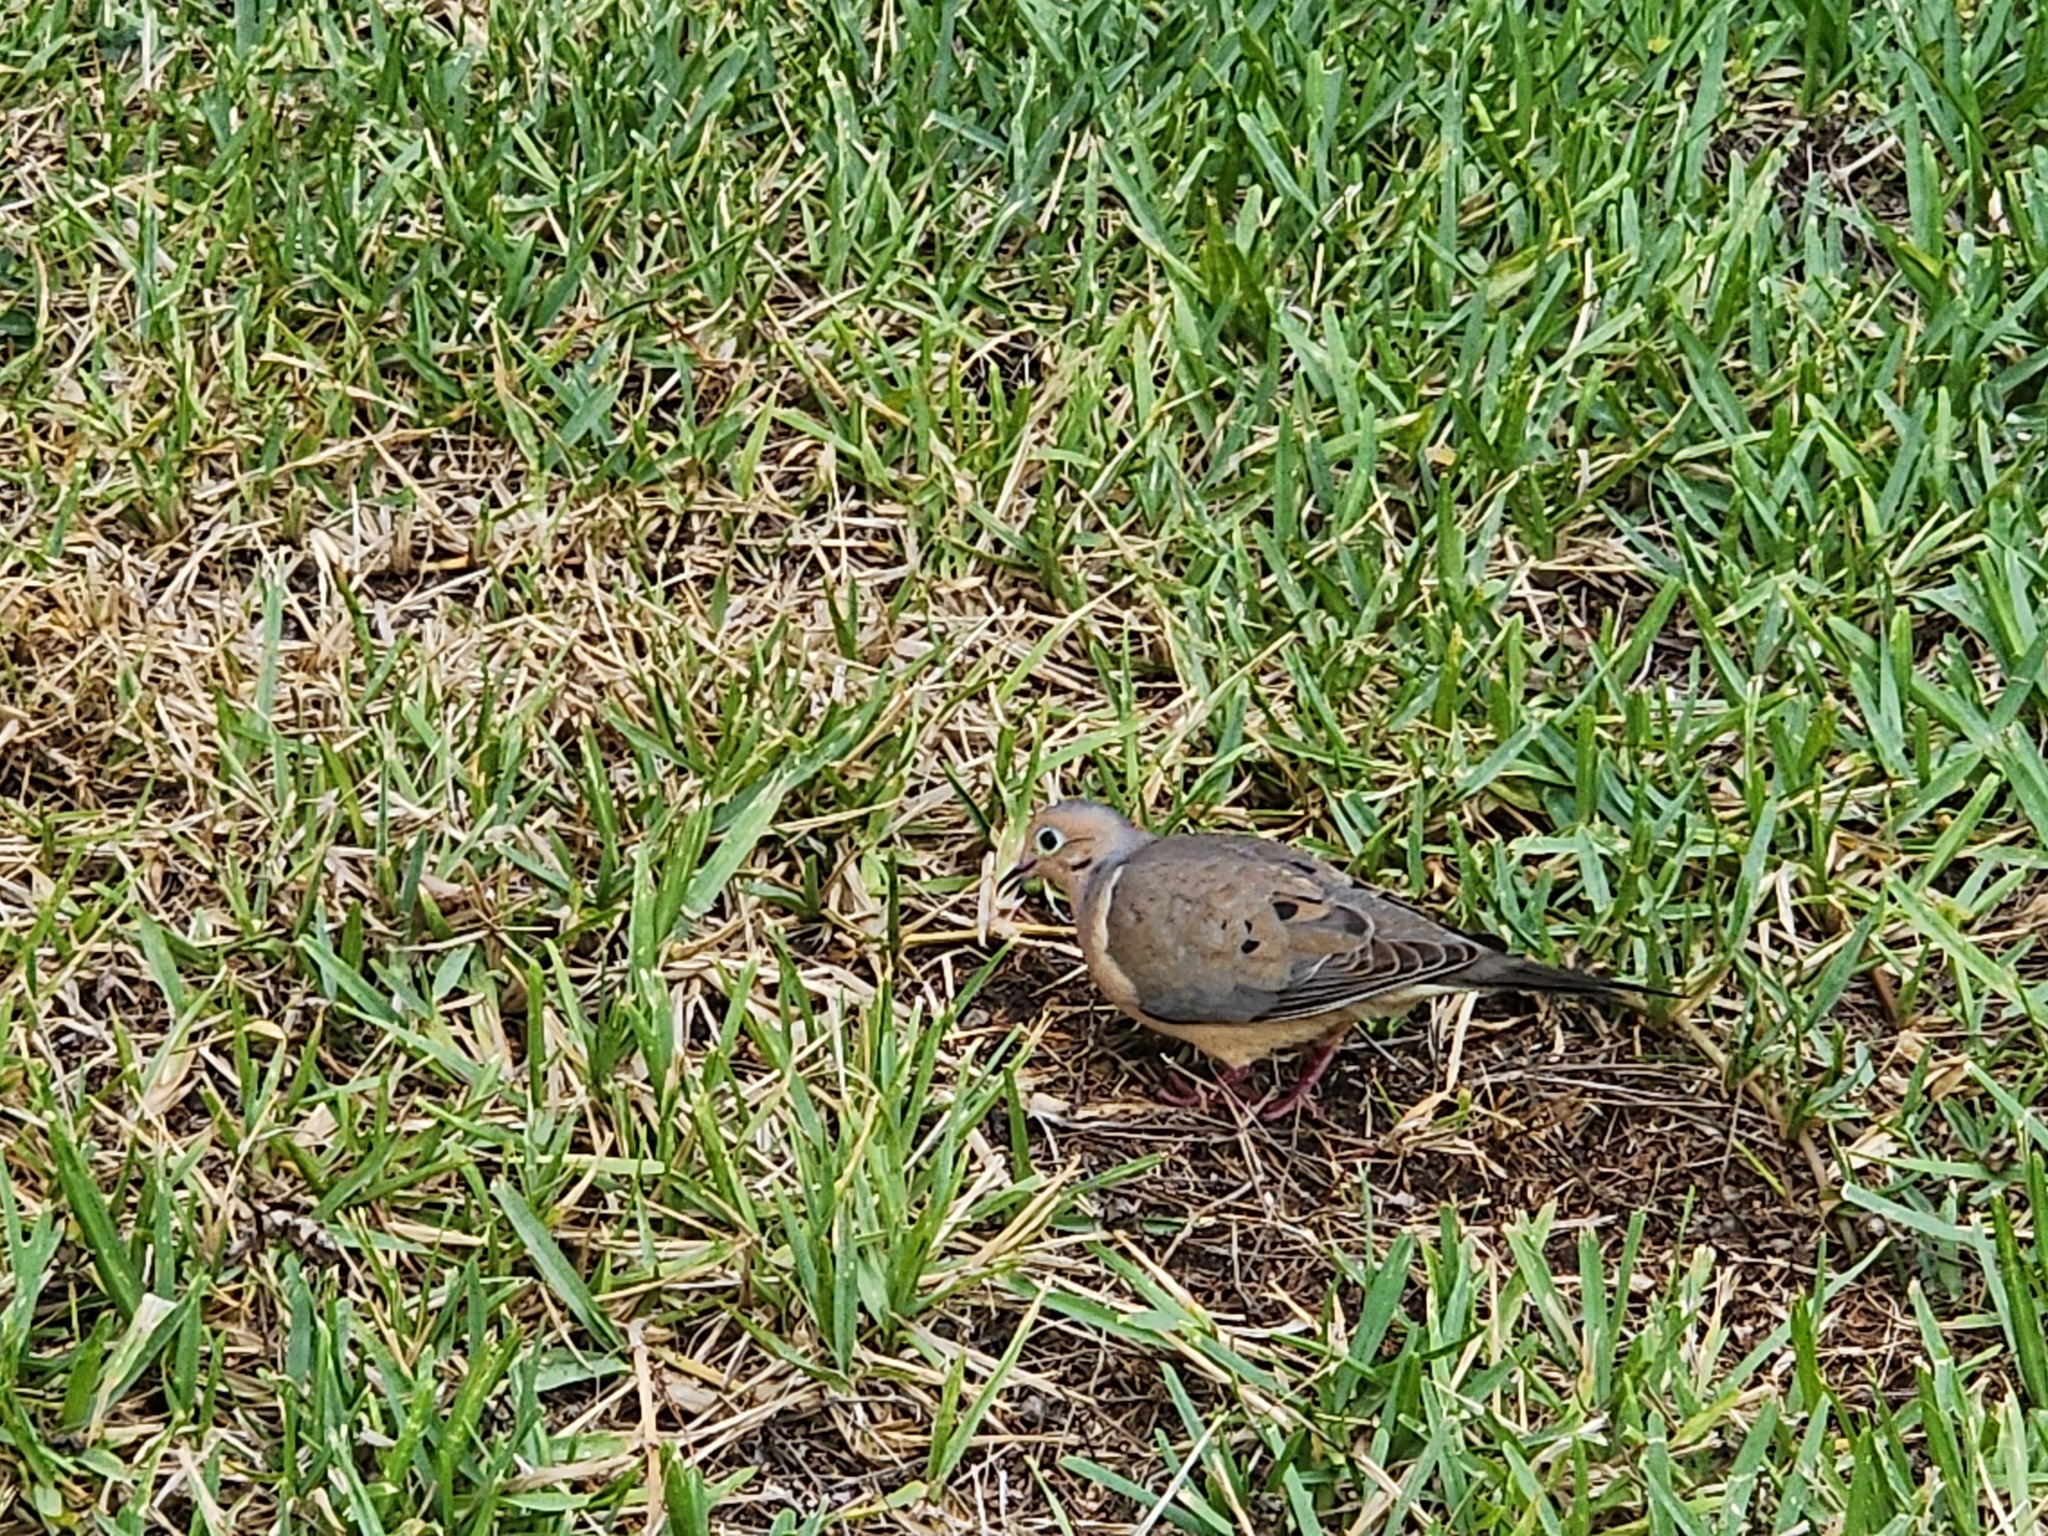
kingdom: Animalia
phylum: Chordata
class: Aves
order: Columbiformes
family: Columbidae
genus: Zenaida
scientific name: Zenaida macroura
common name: Mourning dove
